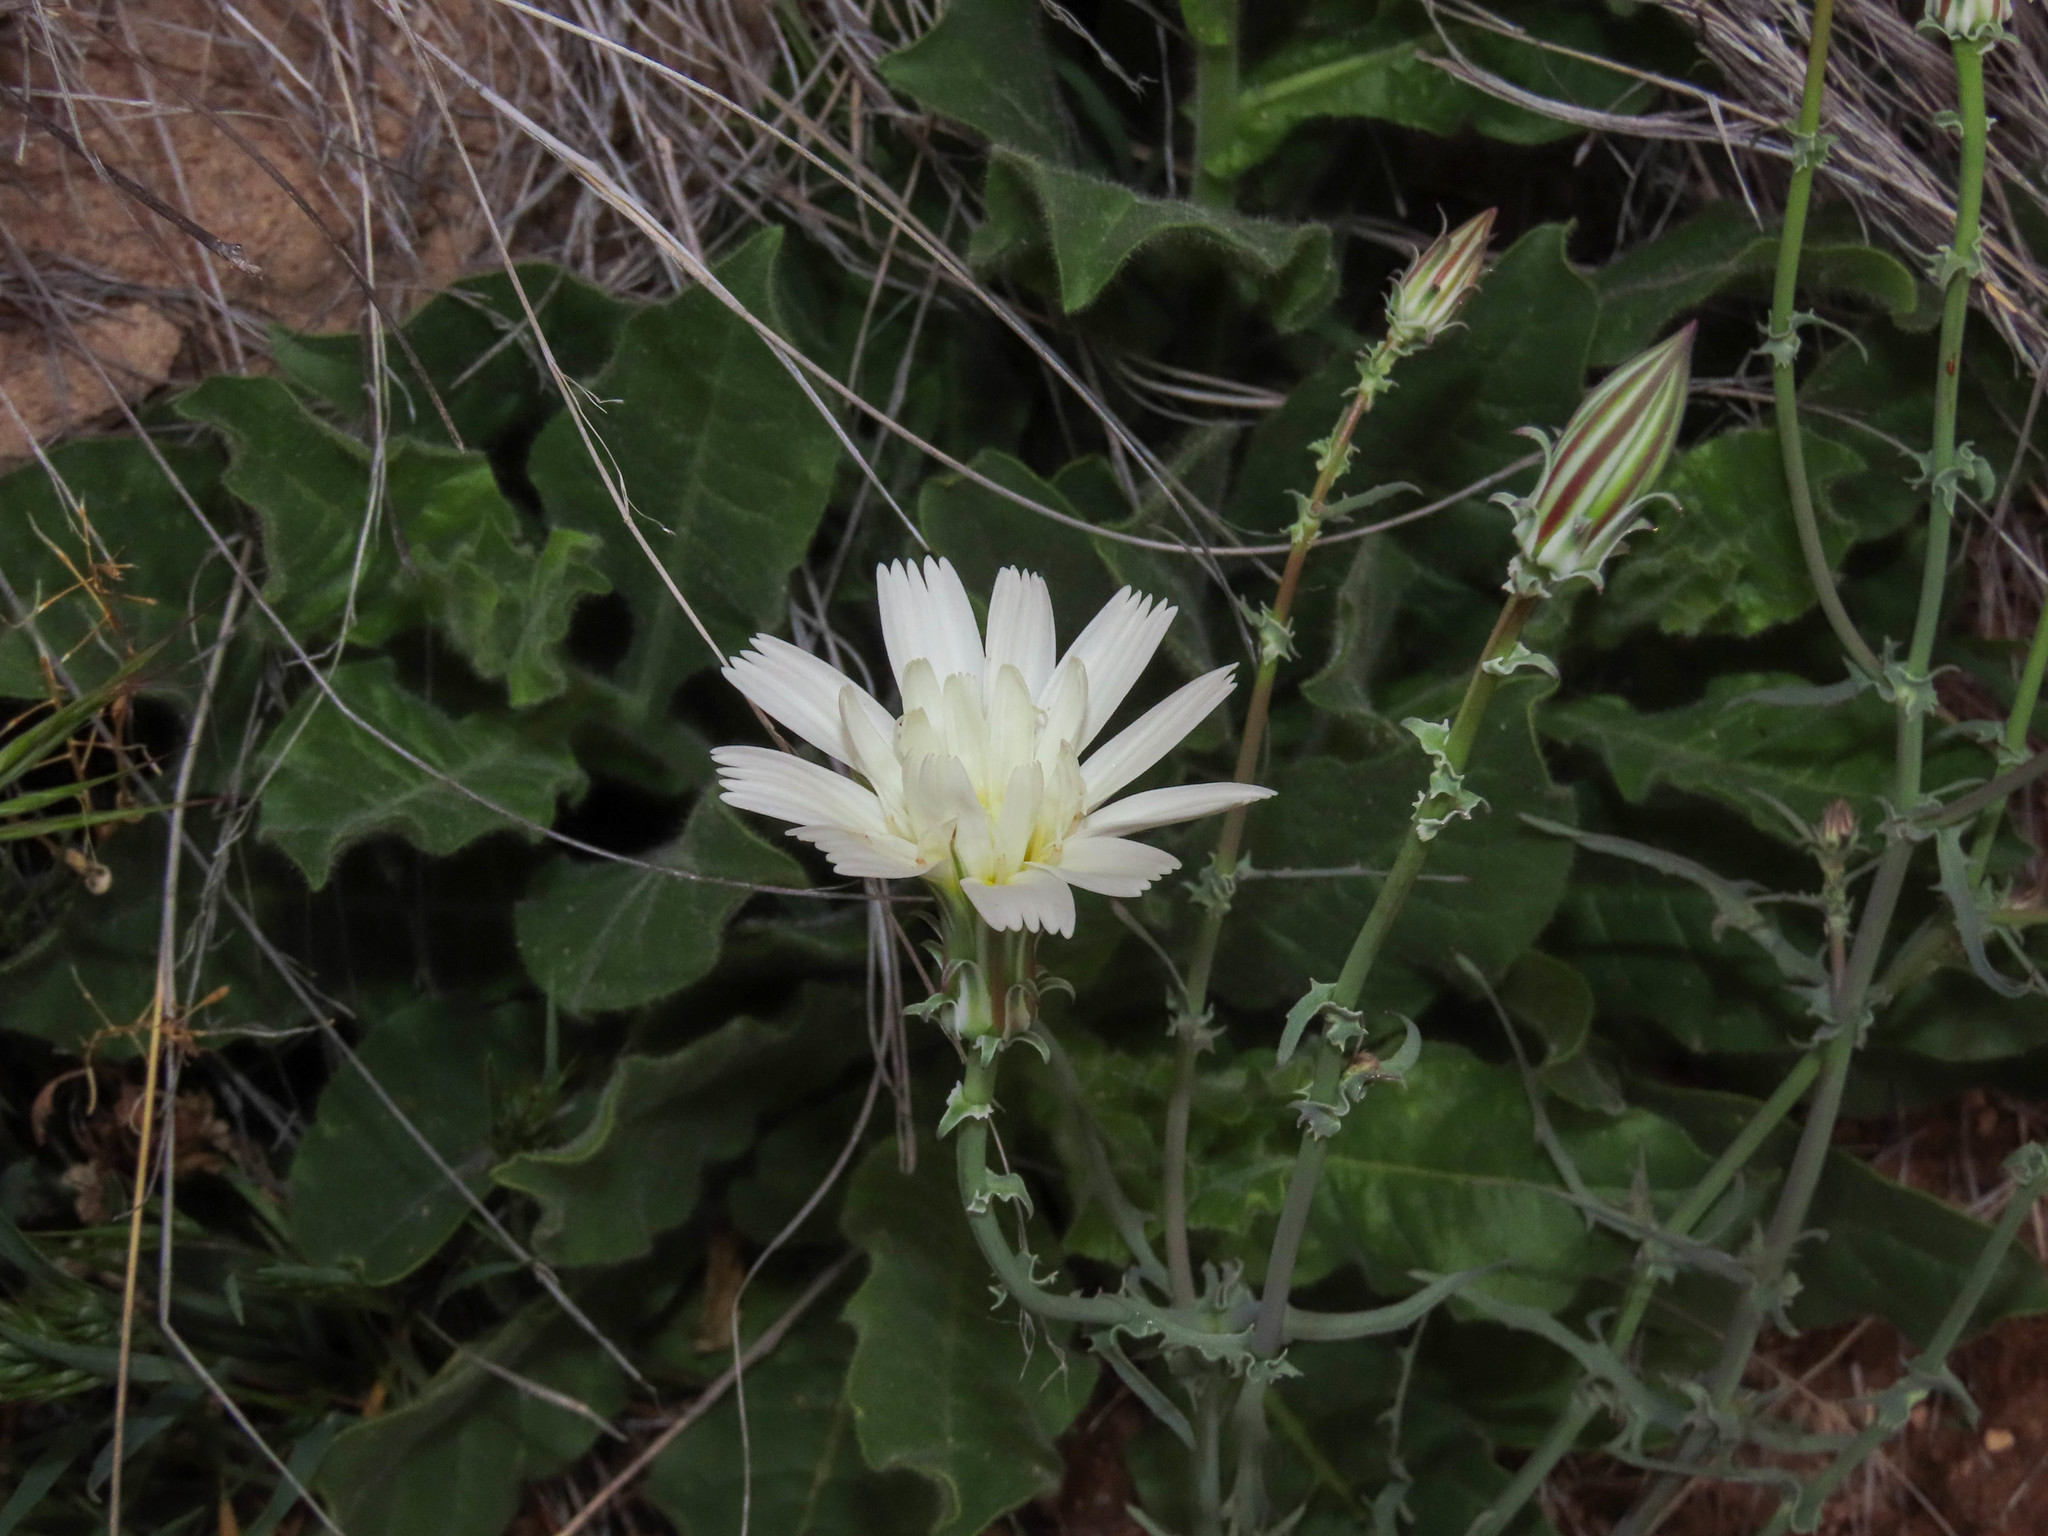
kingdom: Plantae
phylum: Tracheophyta
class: Magnoliopsida
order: Asterales
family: Asteraceae
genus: Rafinesquia
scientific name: Rafinesquia neomexicana
